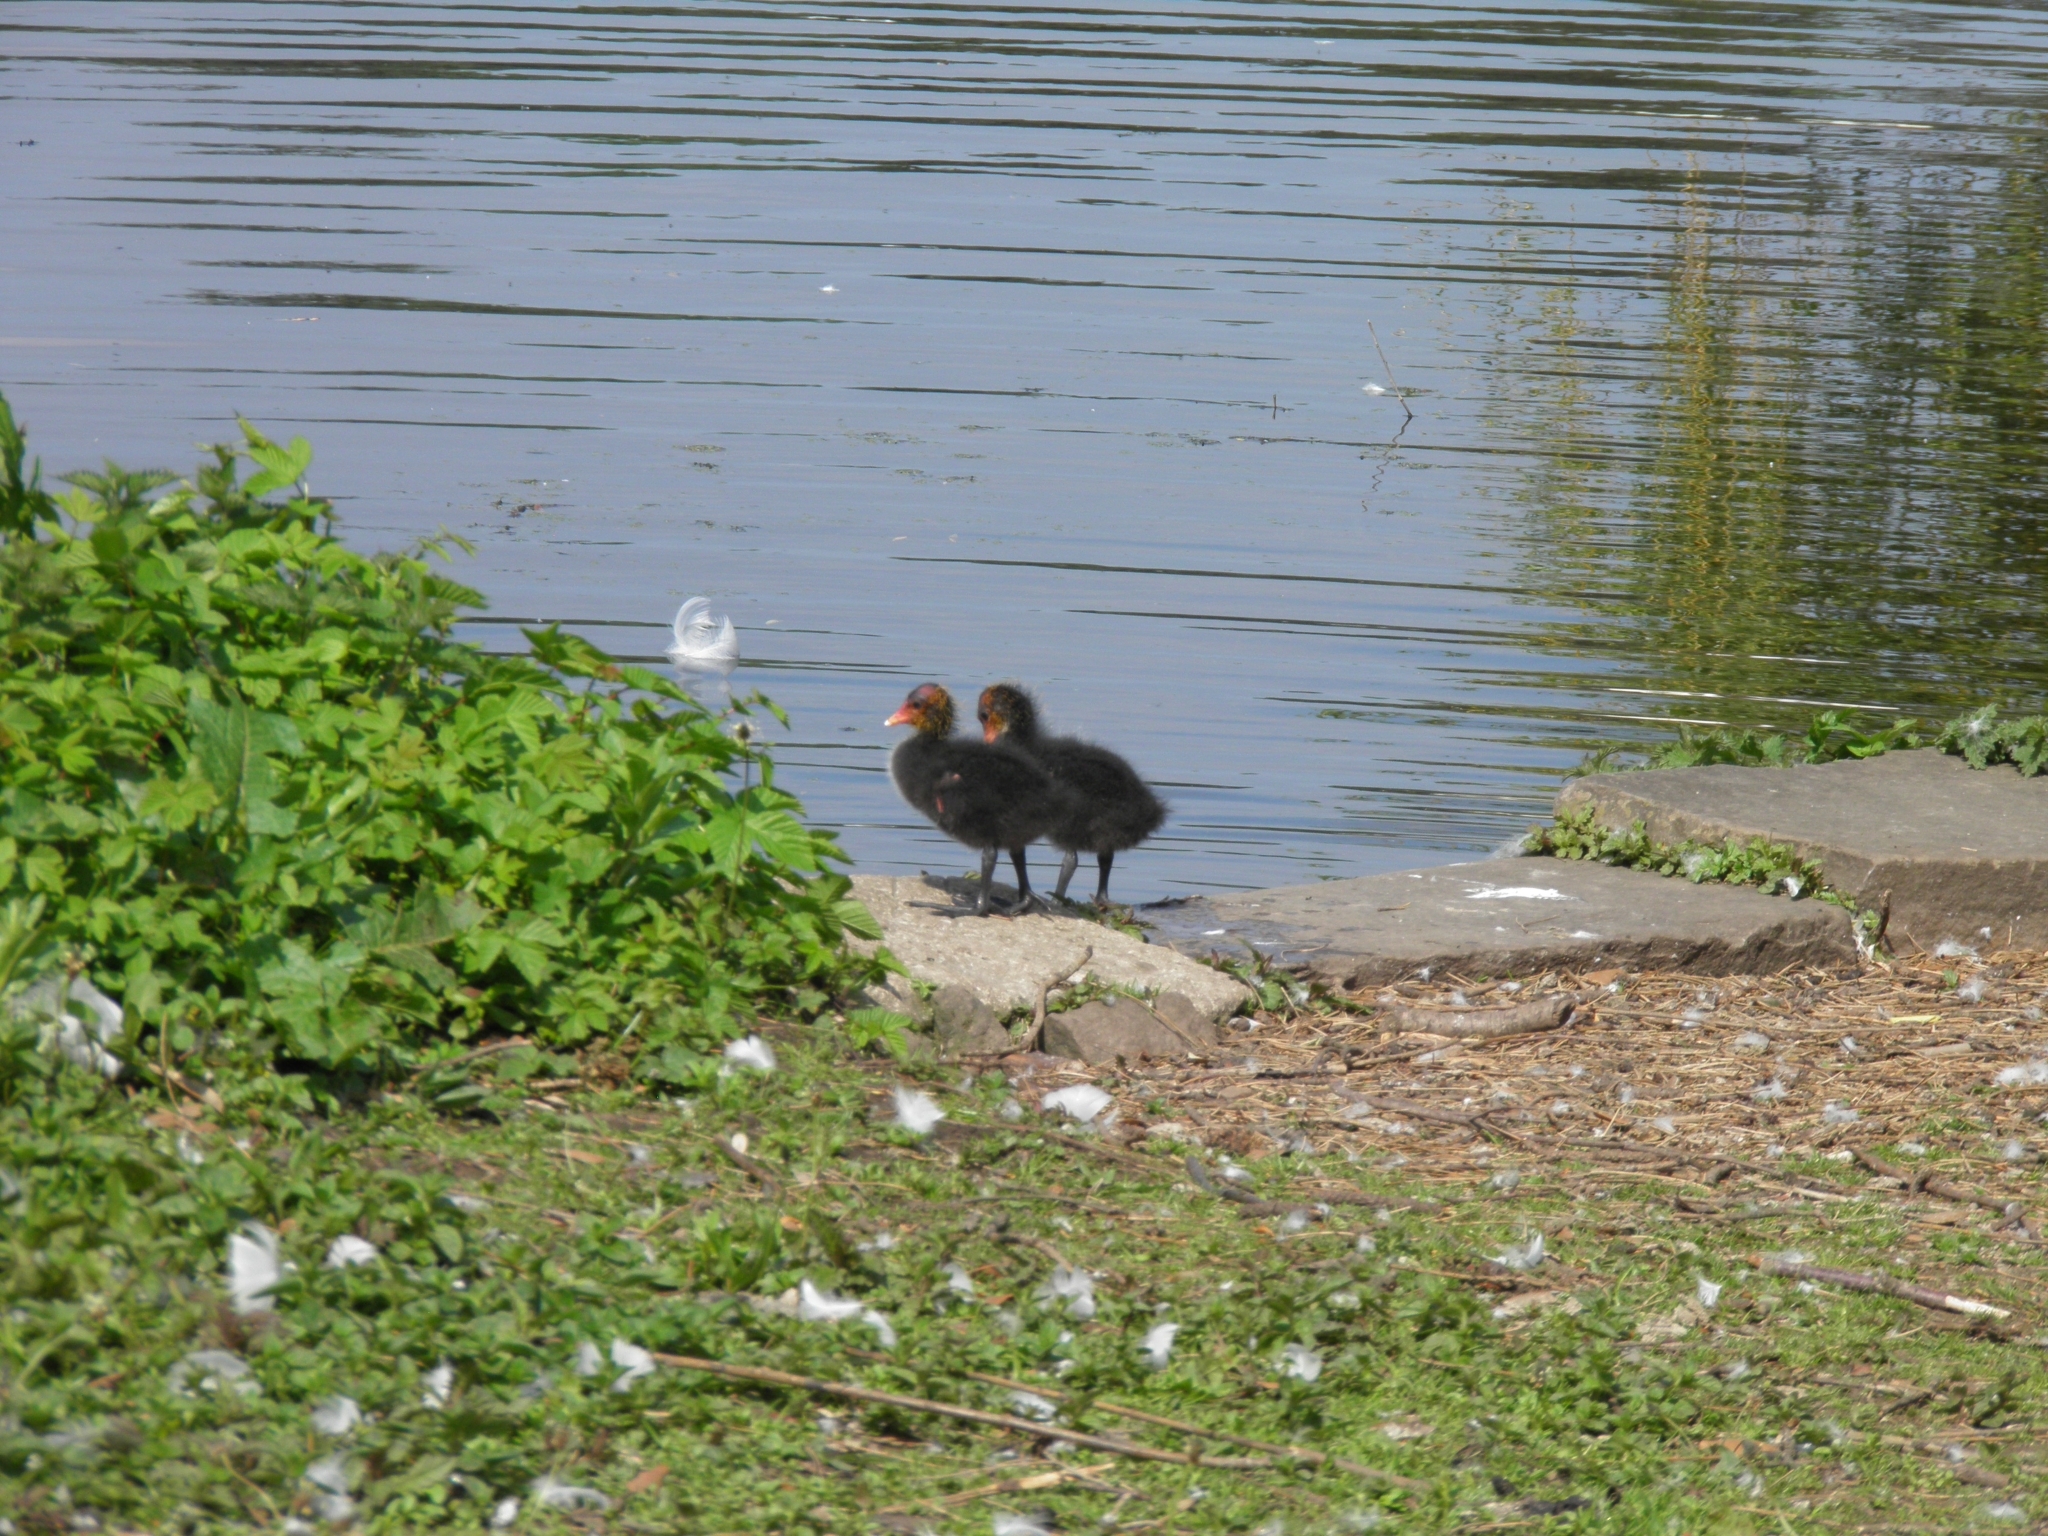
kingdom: Animalia
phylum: Chordata
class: Aves
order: Gruiformes
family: Rallidae
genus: Fulica
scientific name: Fulica atra
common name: Eurasian coot
